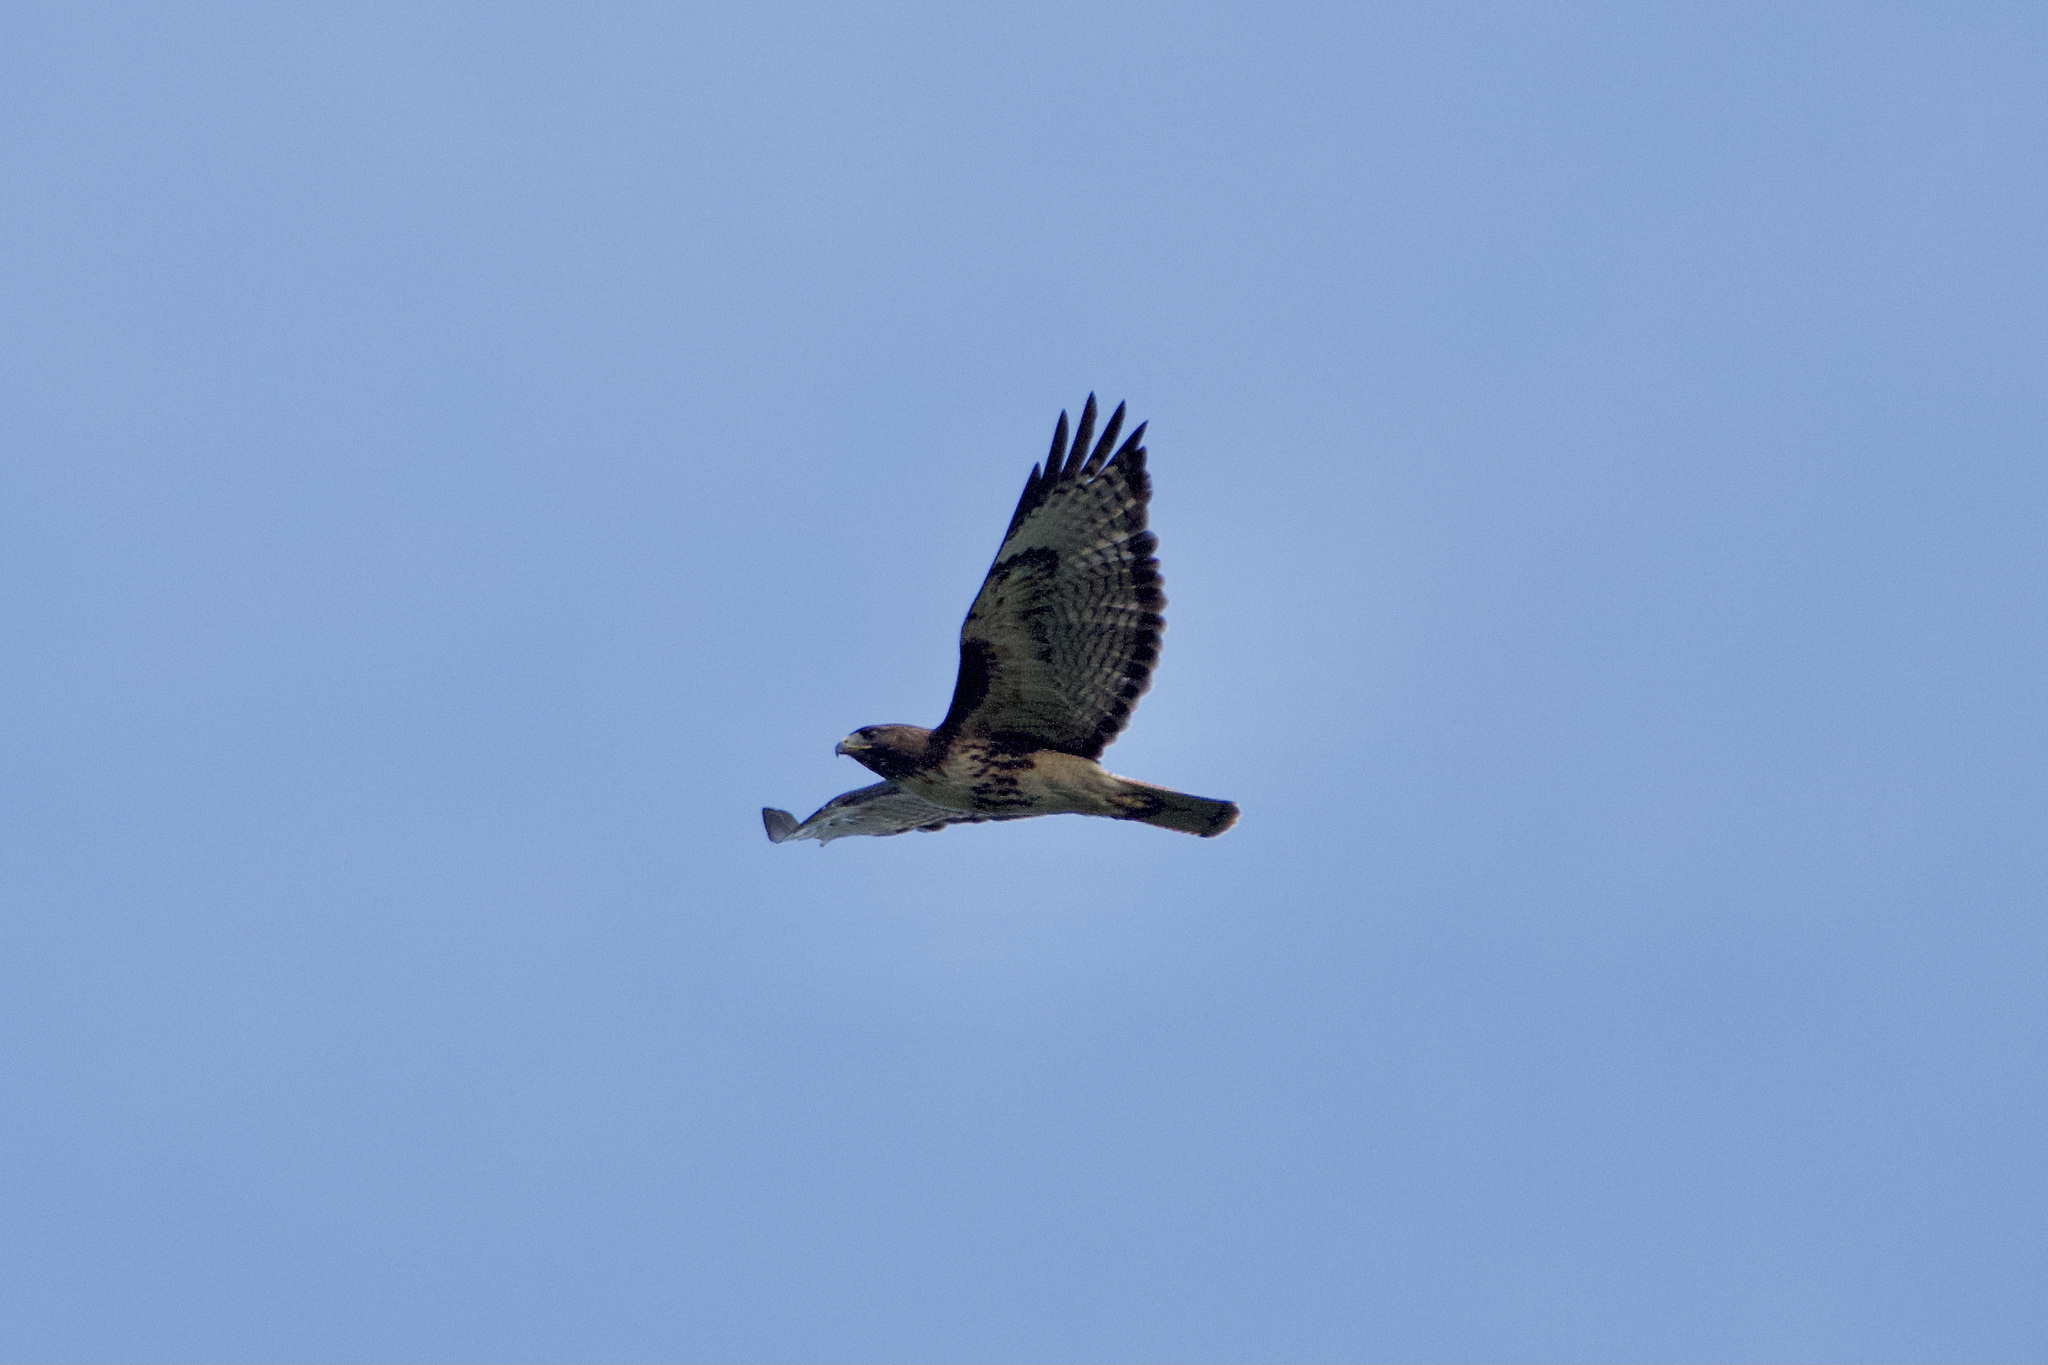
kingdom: Animalia
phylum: Chordata
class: Aves
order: Accipitriformes
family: Accipitridae
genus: Buteo
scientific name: Buteo jamaicensis
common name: Red-tailed hawk
